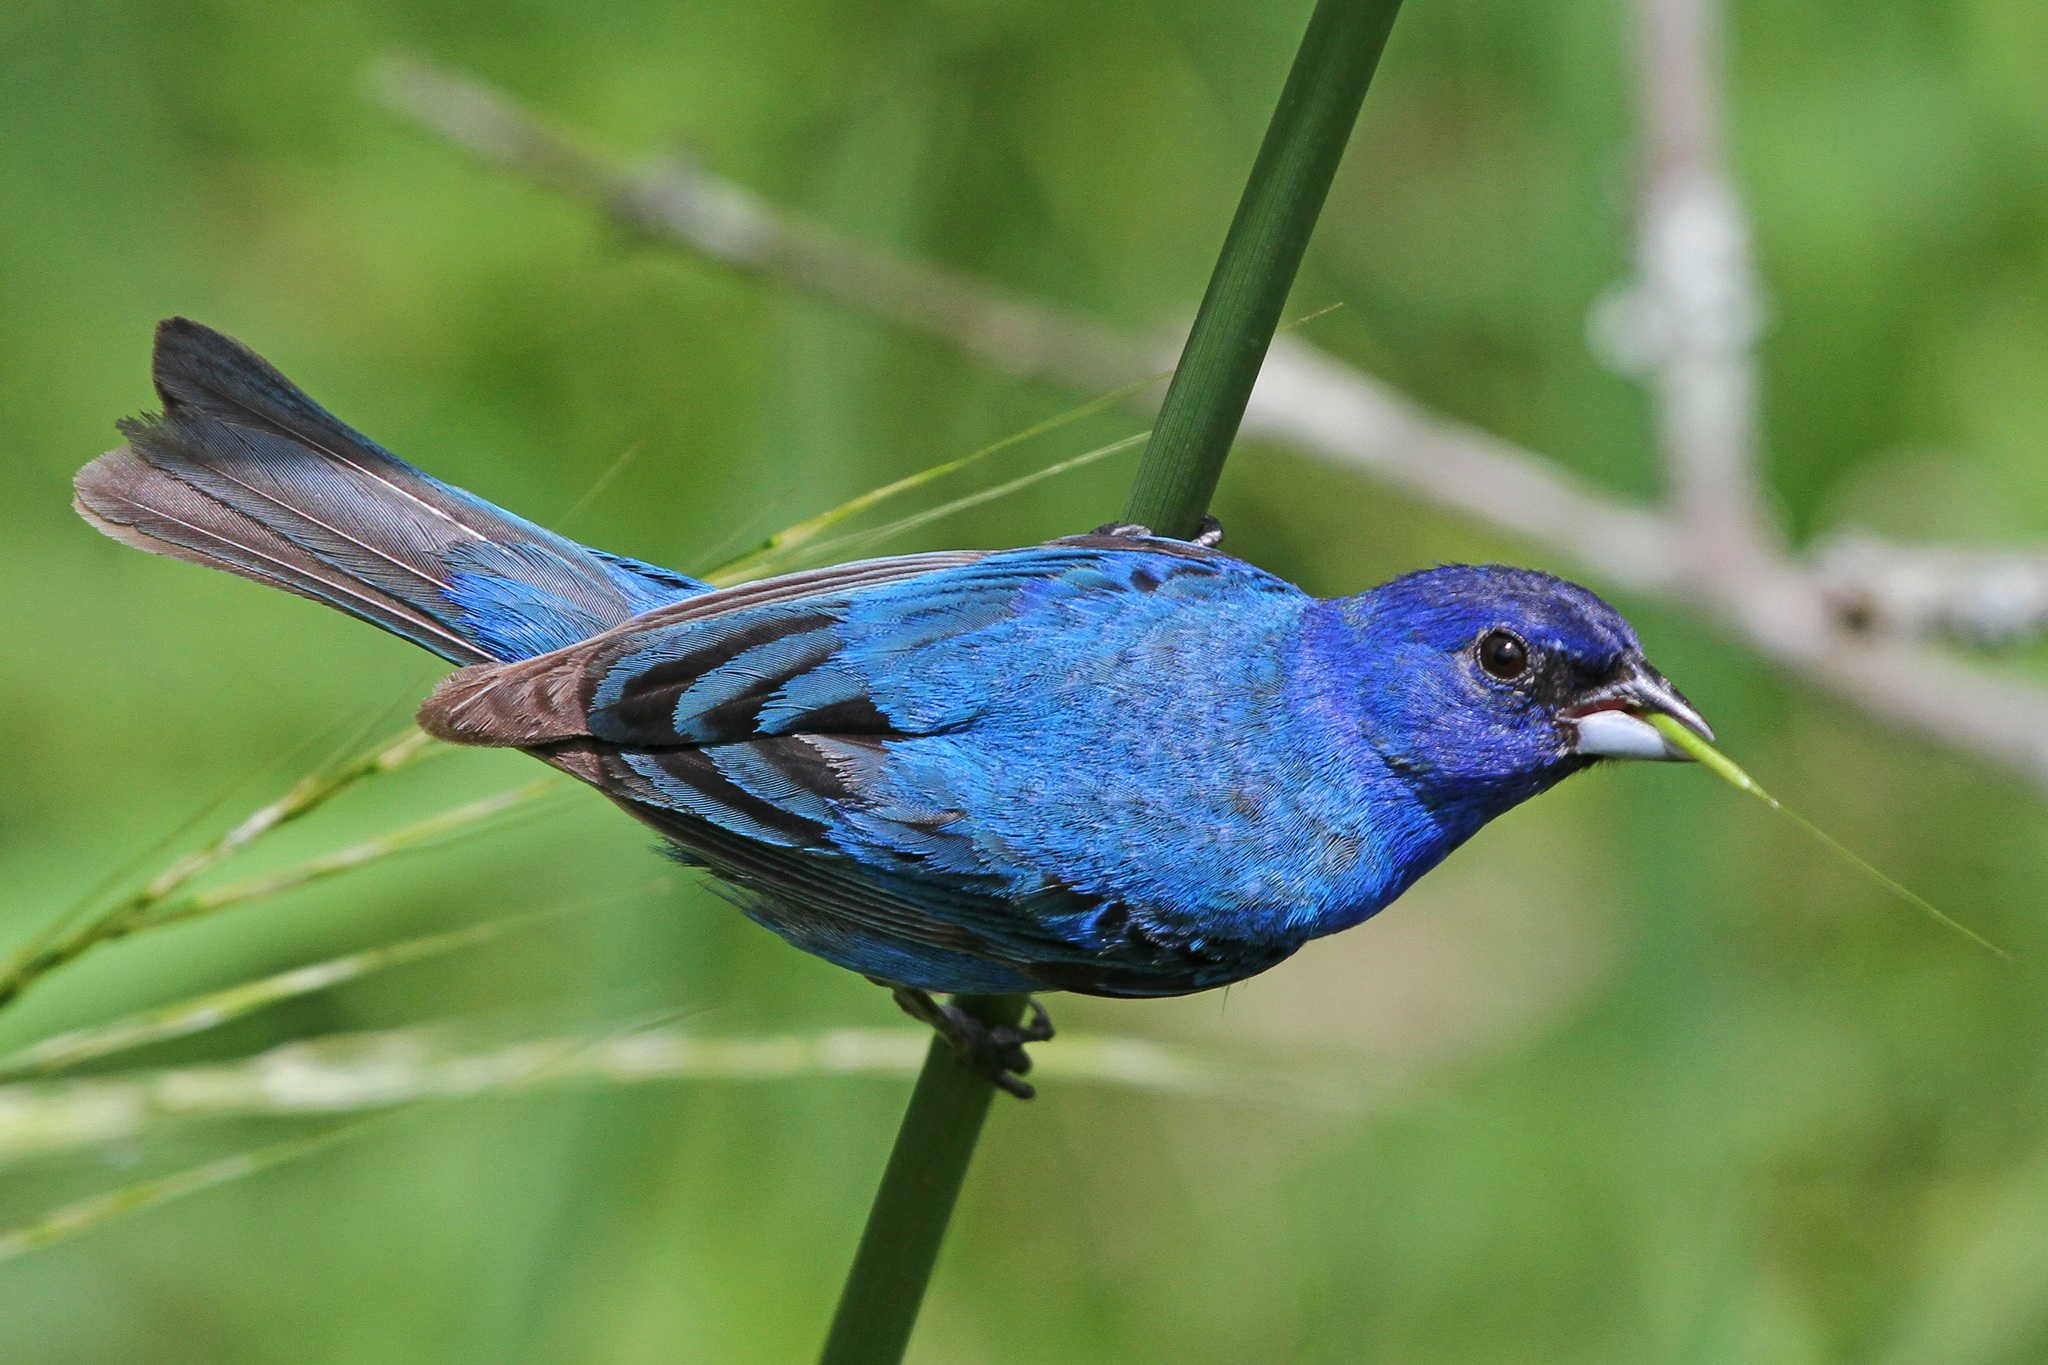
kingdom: Animalia
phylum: Chordata
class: Aves
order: Passeriformes
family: Cardinalidae
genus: Passerina
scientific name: Passerina cyanea
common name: Indigo bunting
